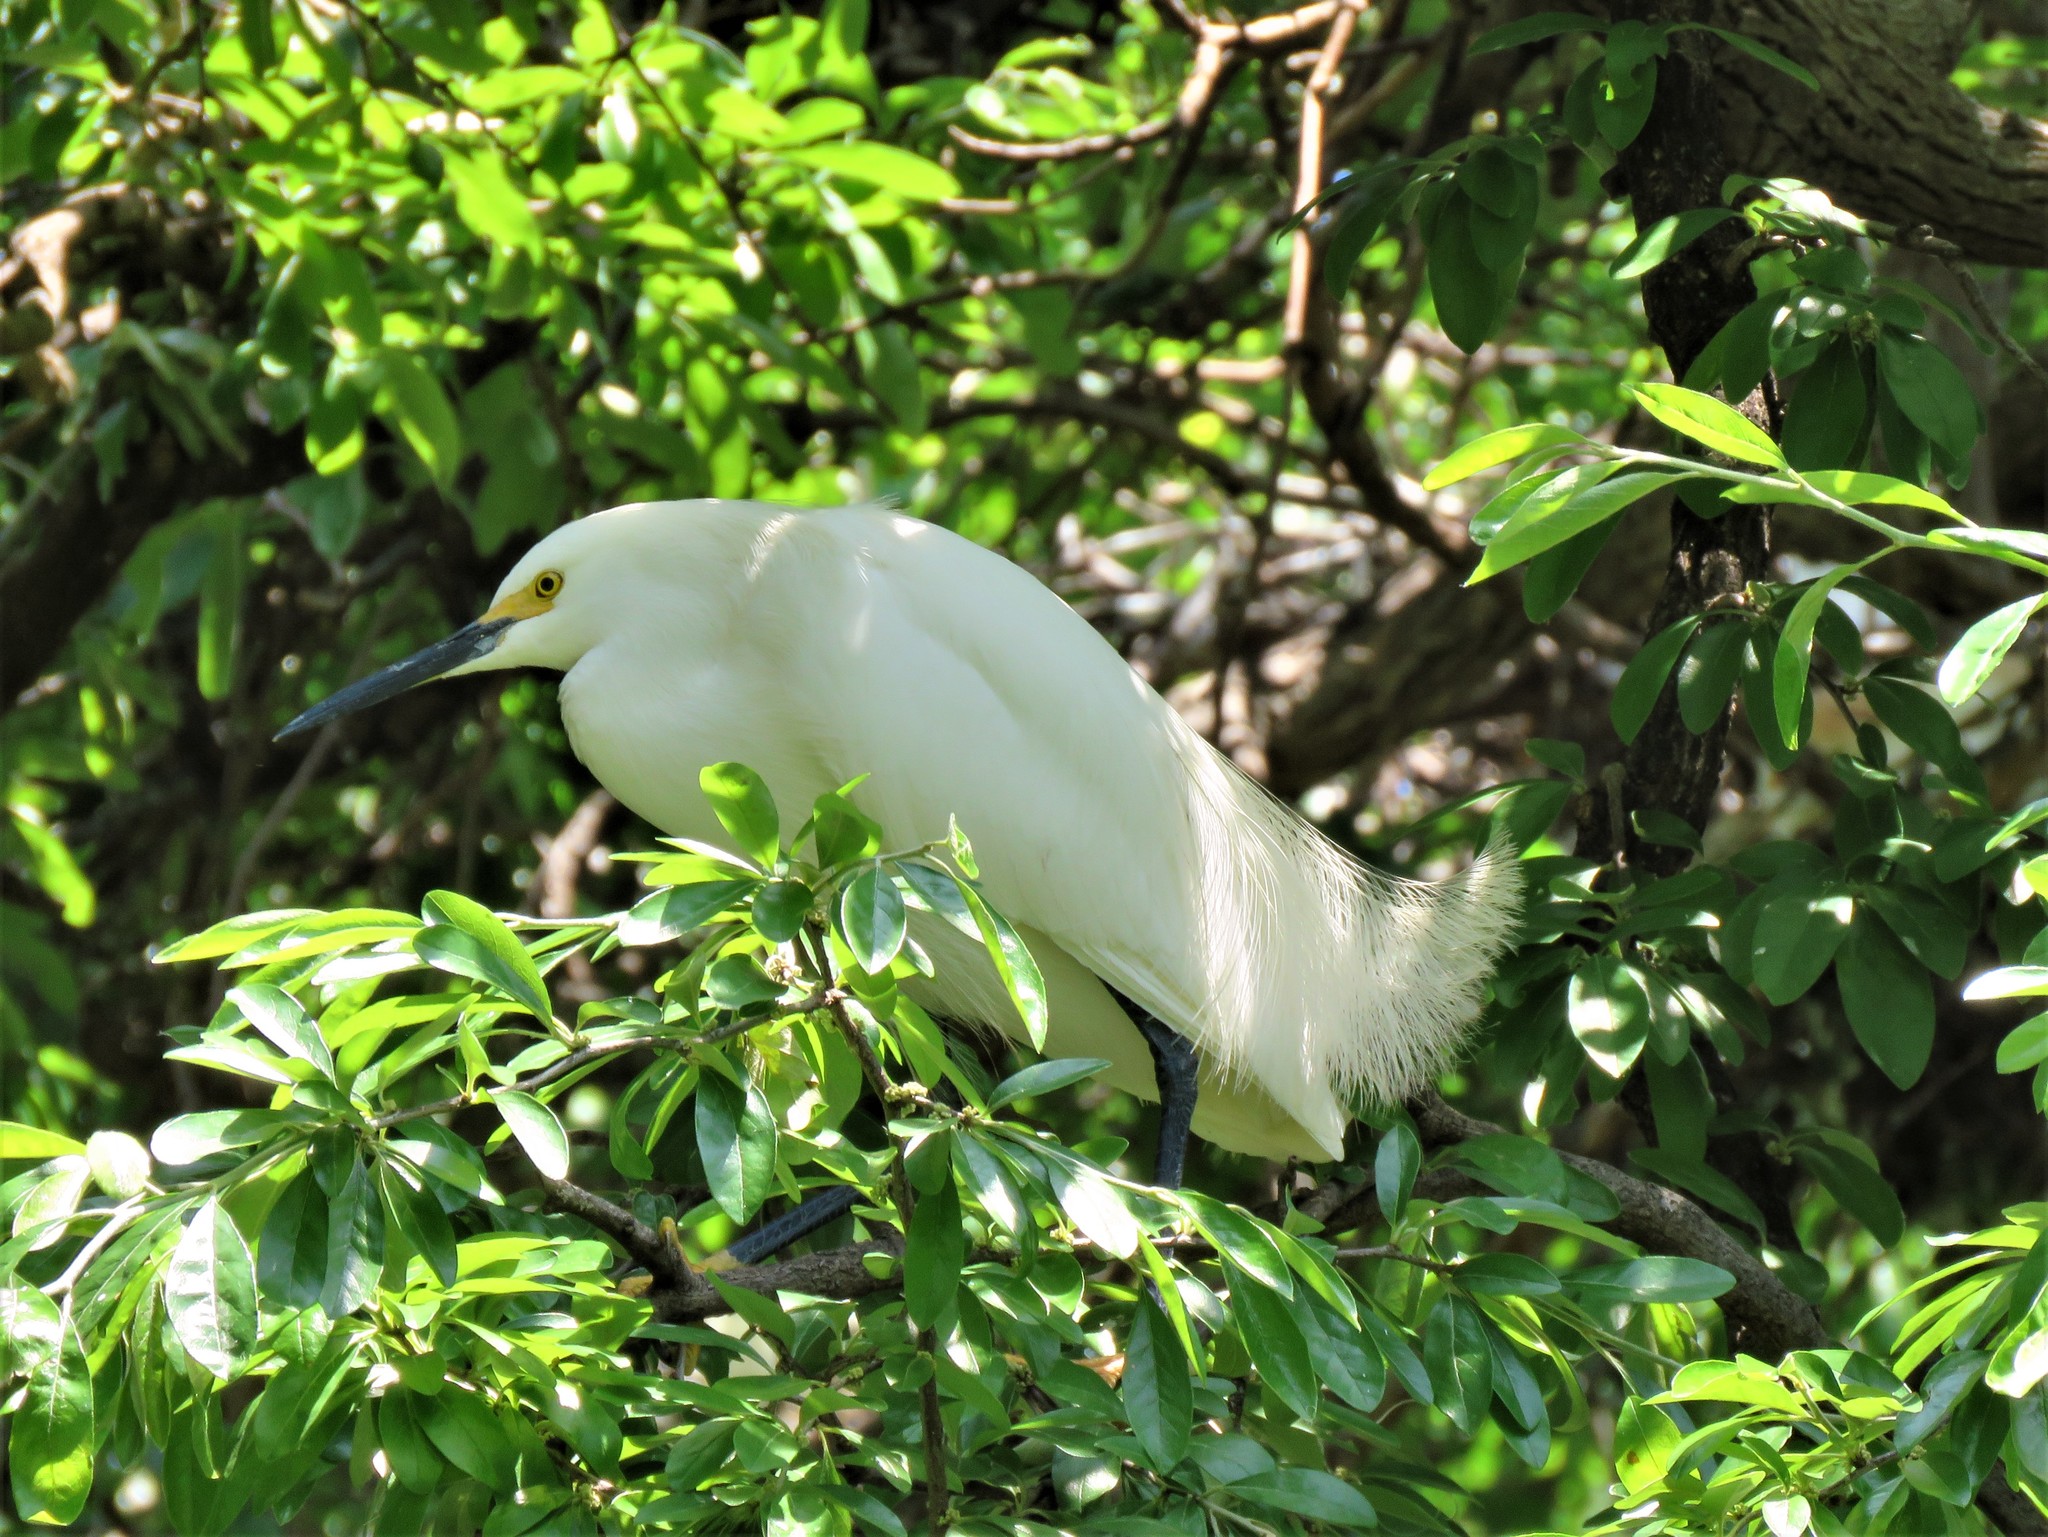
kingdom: Animalia
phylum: Chordata
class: Aves
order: Pelecaniformes
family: Ardeidae
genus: Egretta
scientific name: Egretta thula
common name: Snowy egret
